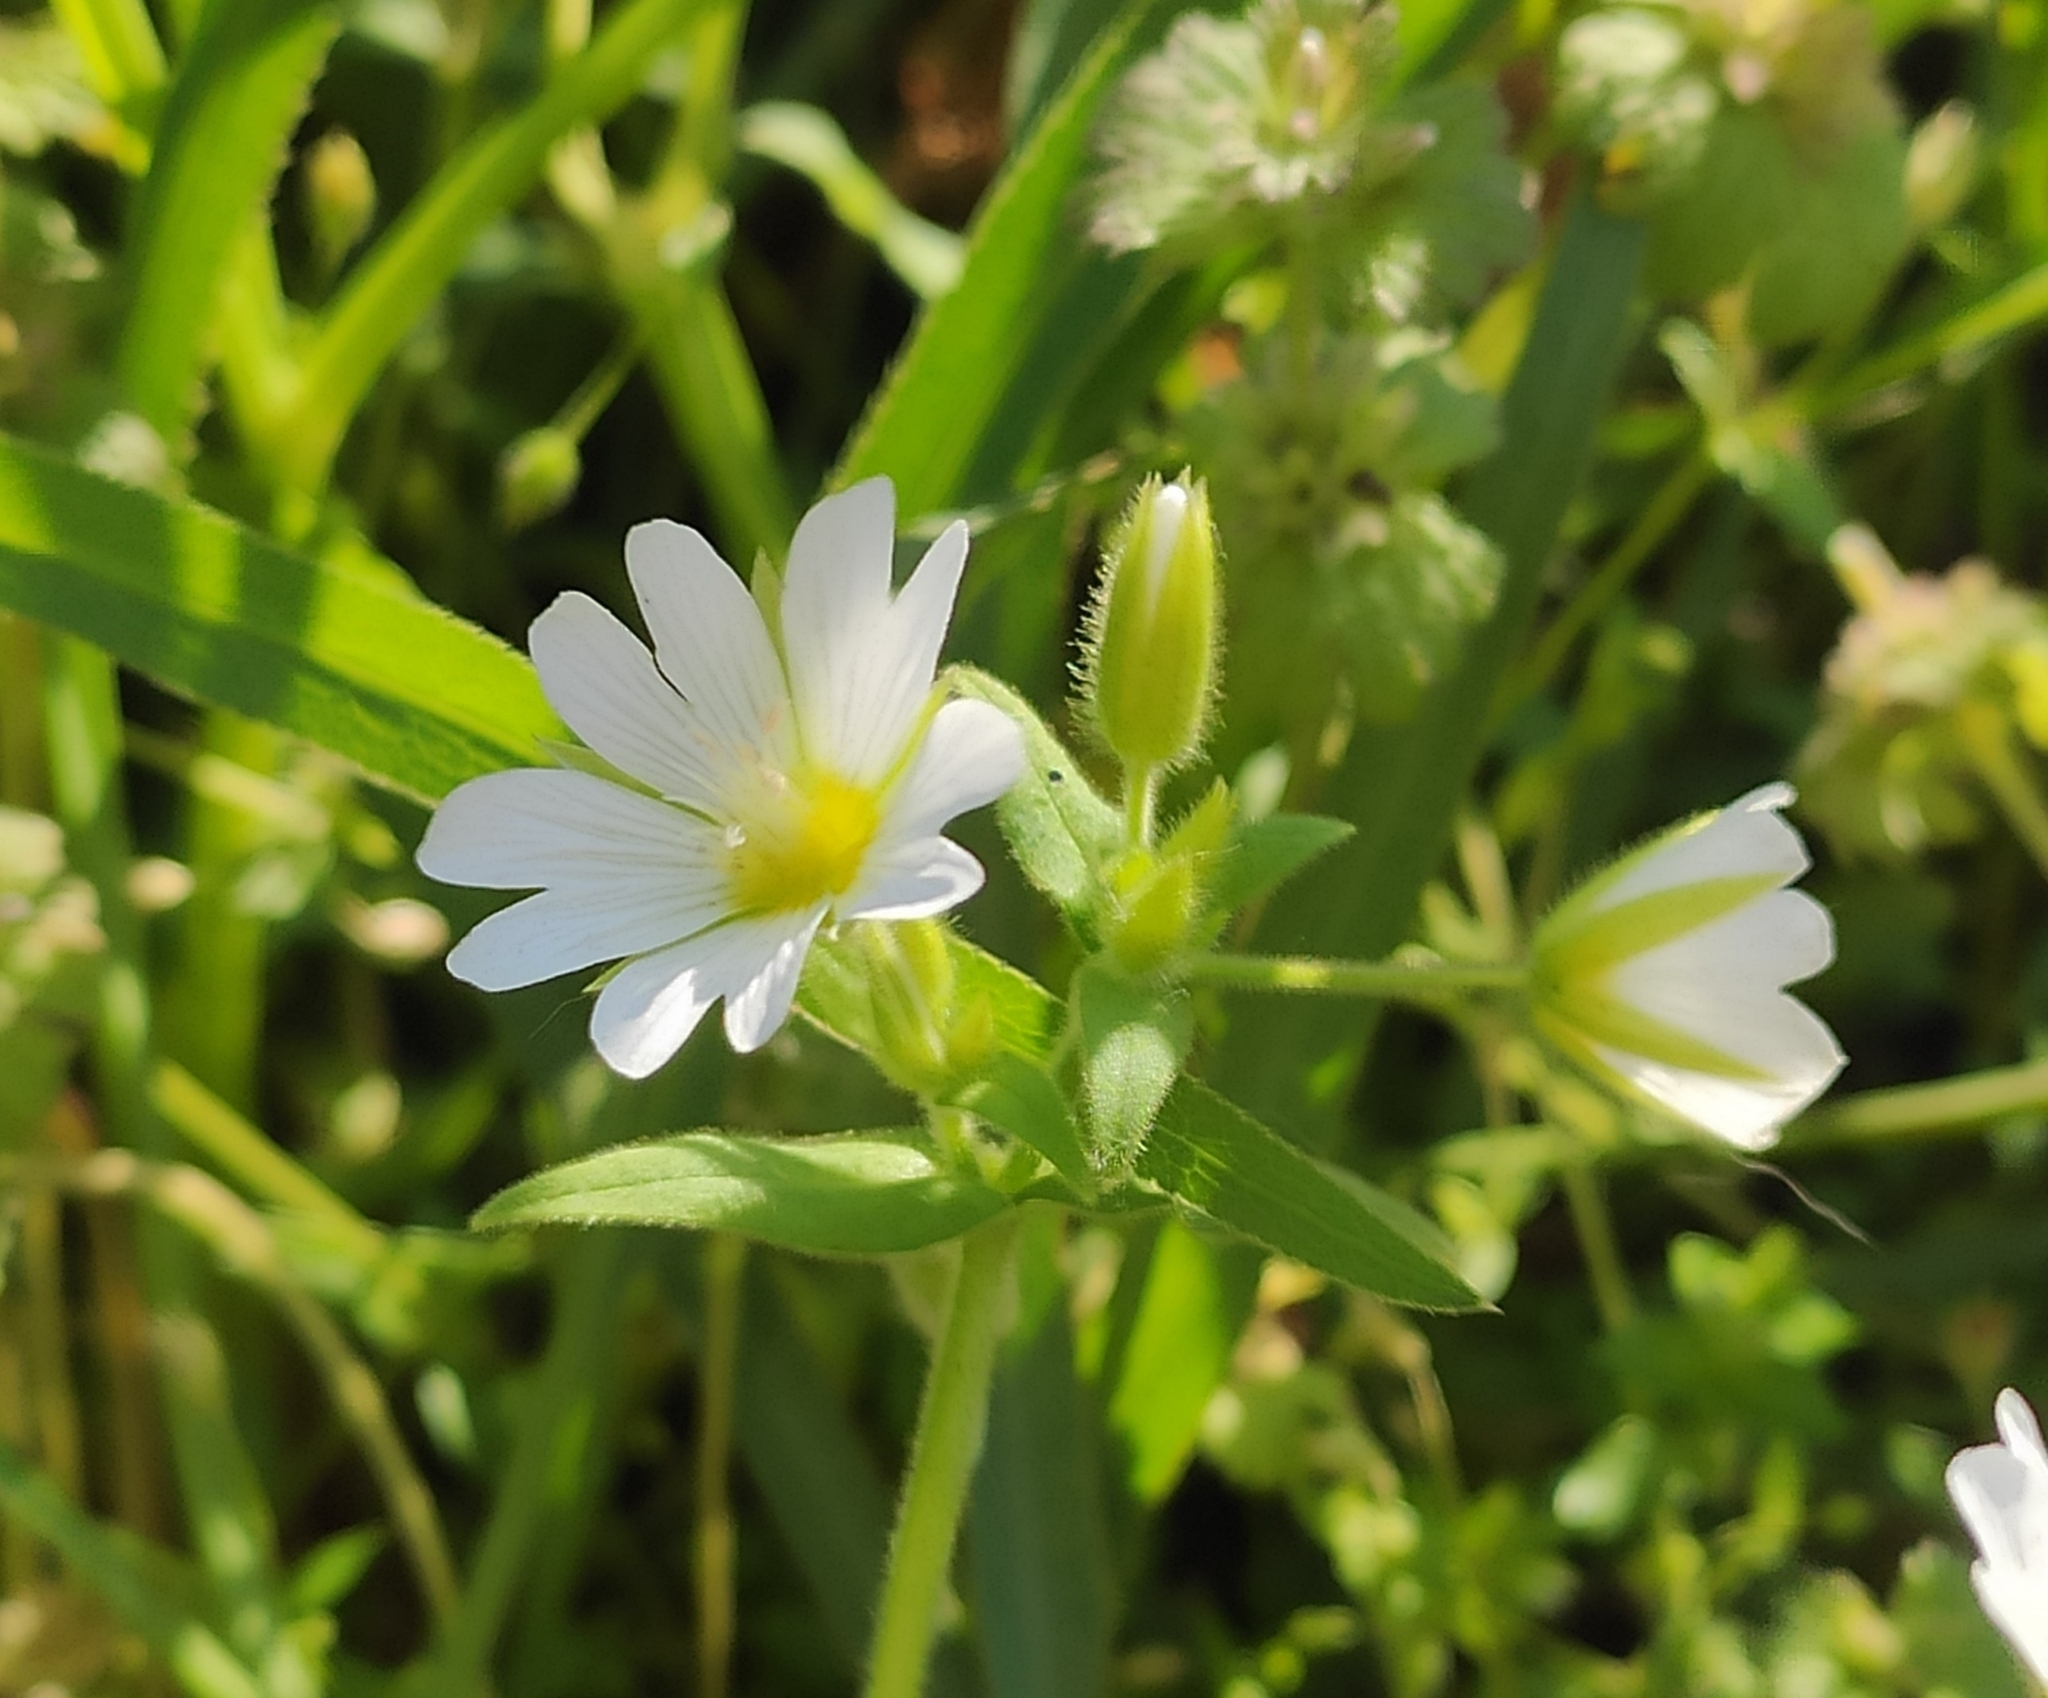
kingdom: Plantae
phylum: Tracheophyta
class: Magnoliopsida
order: Caryophyllales
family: Caryophyllaceae
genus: Cerastium
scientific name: Cerastium nemorale
